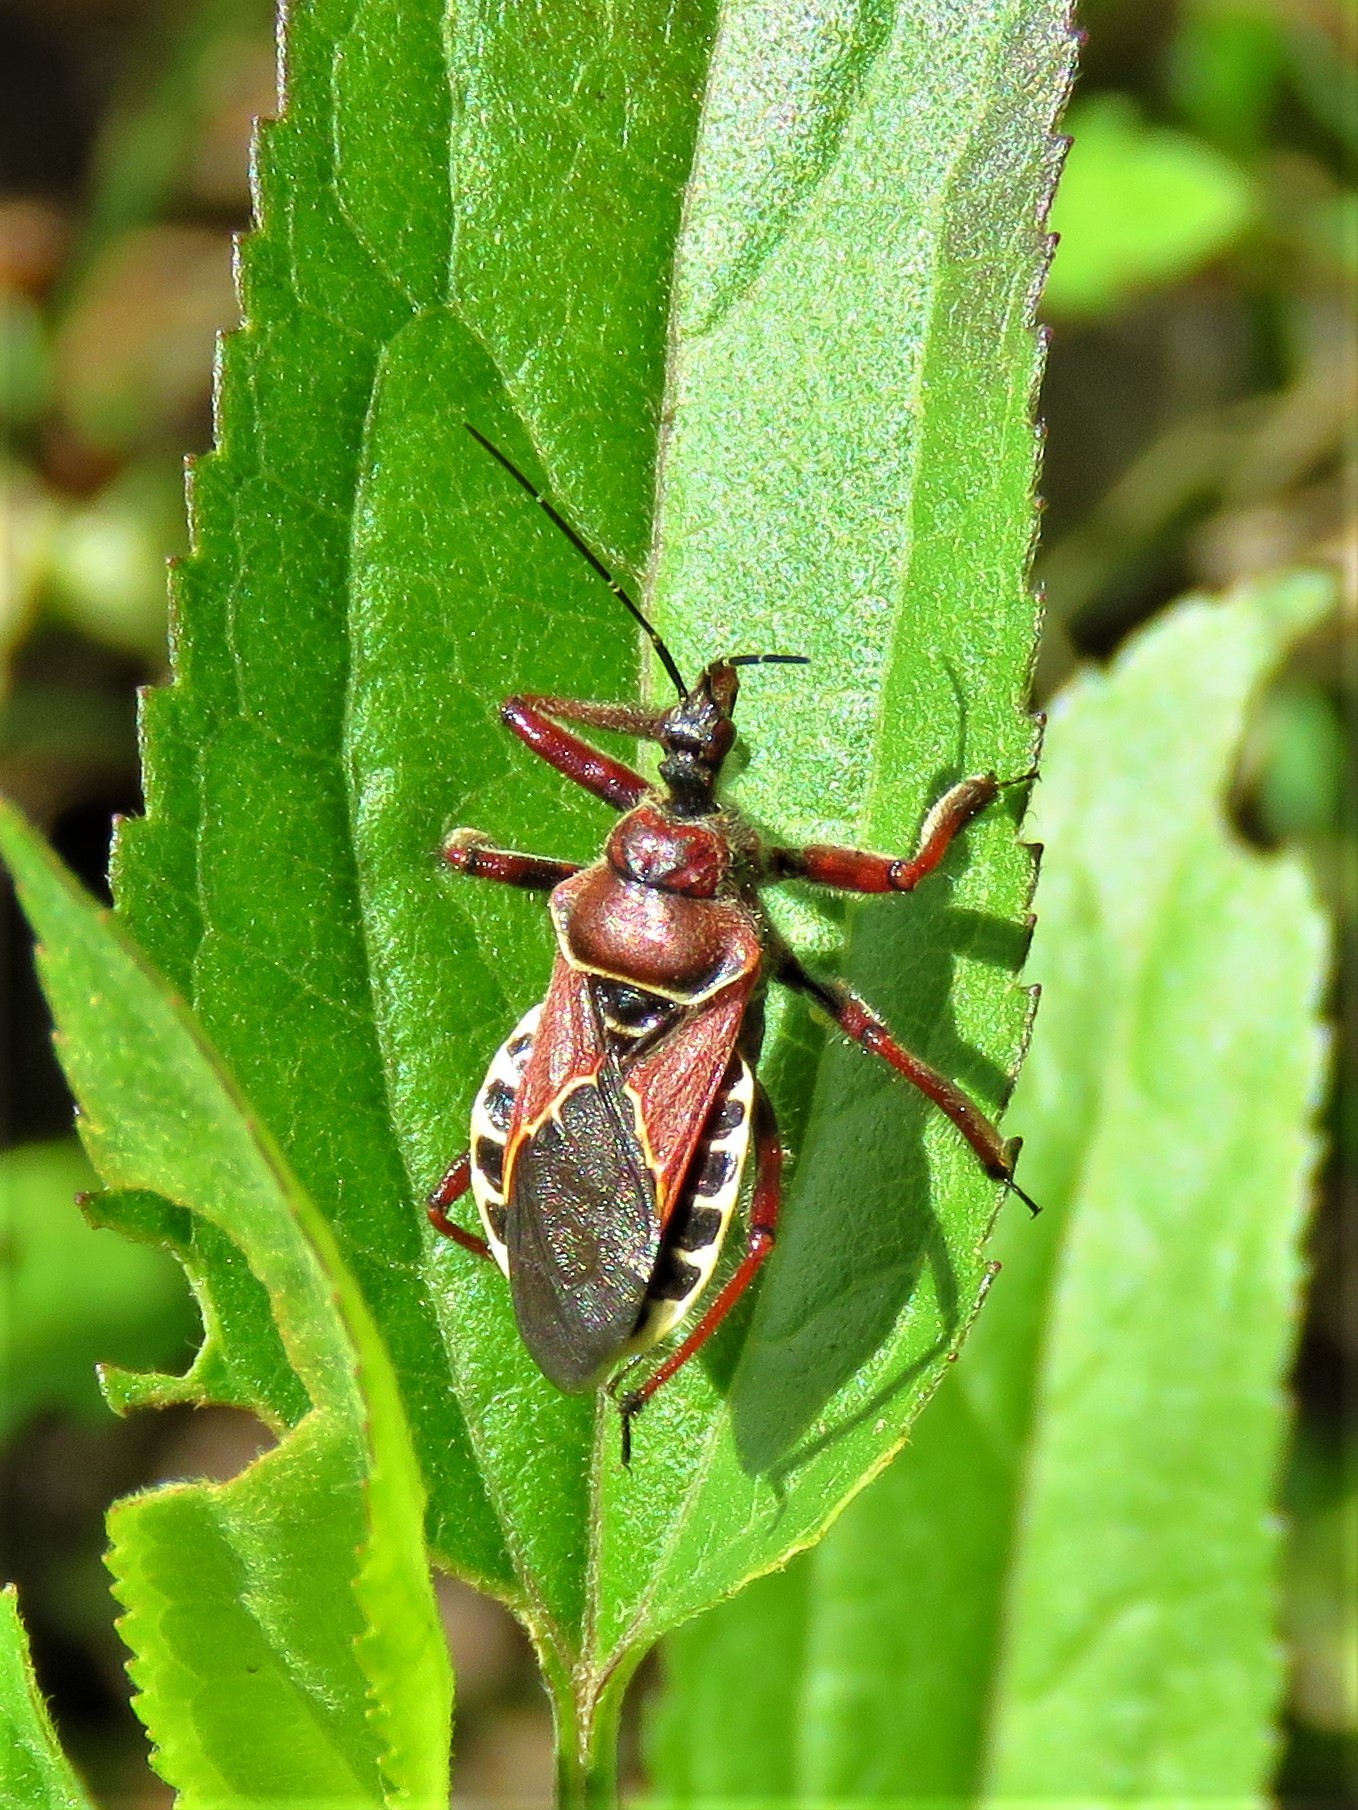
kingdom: Animalia
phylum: Arthropoda
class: Insecta
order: Hemiptera
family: Reduviidae
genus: Apiomerus
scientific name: Apiomerus spissipes
